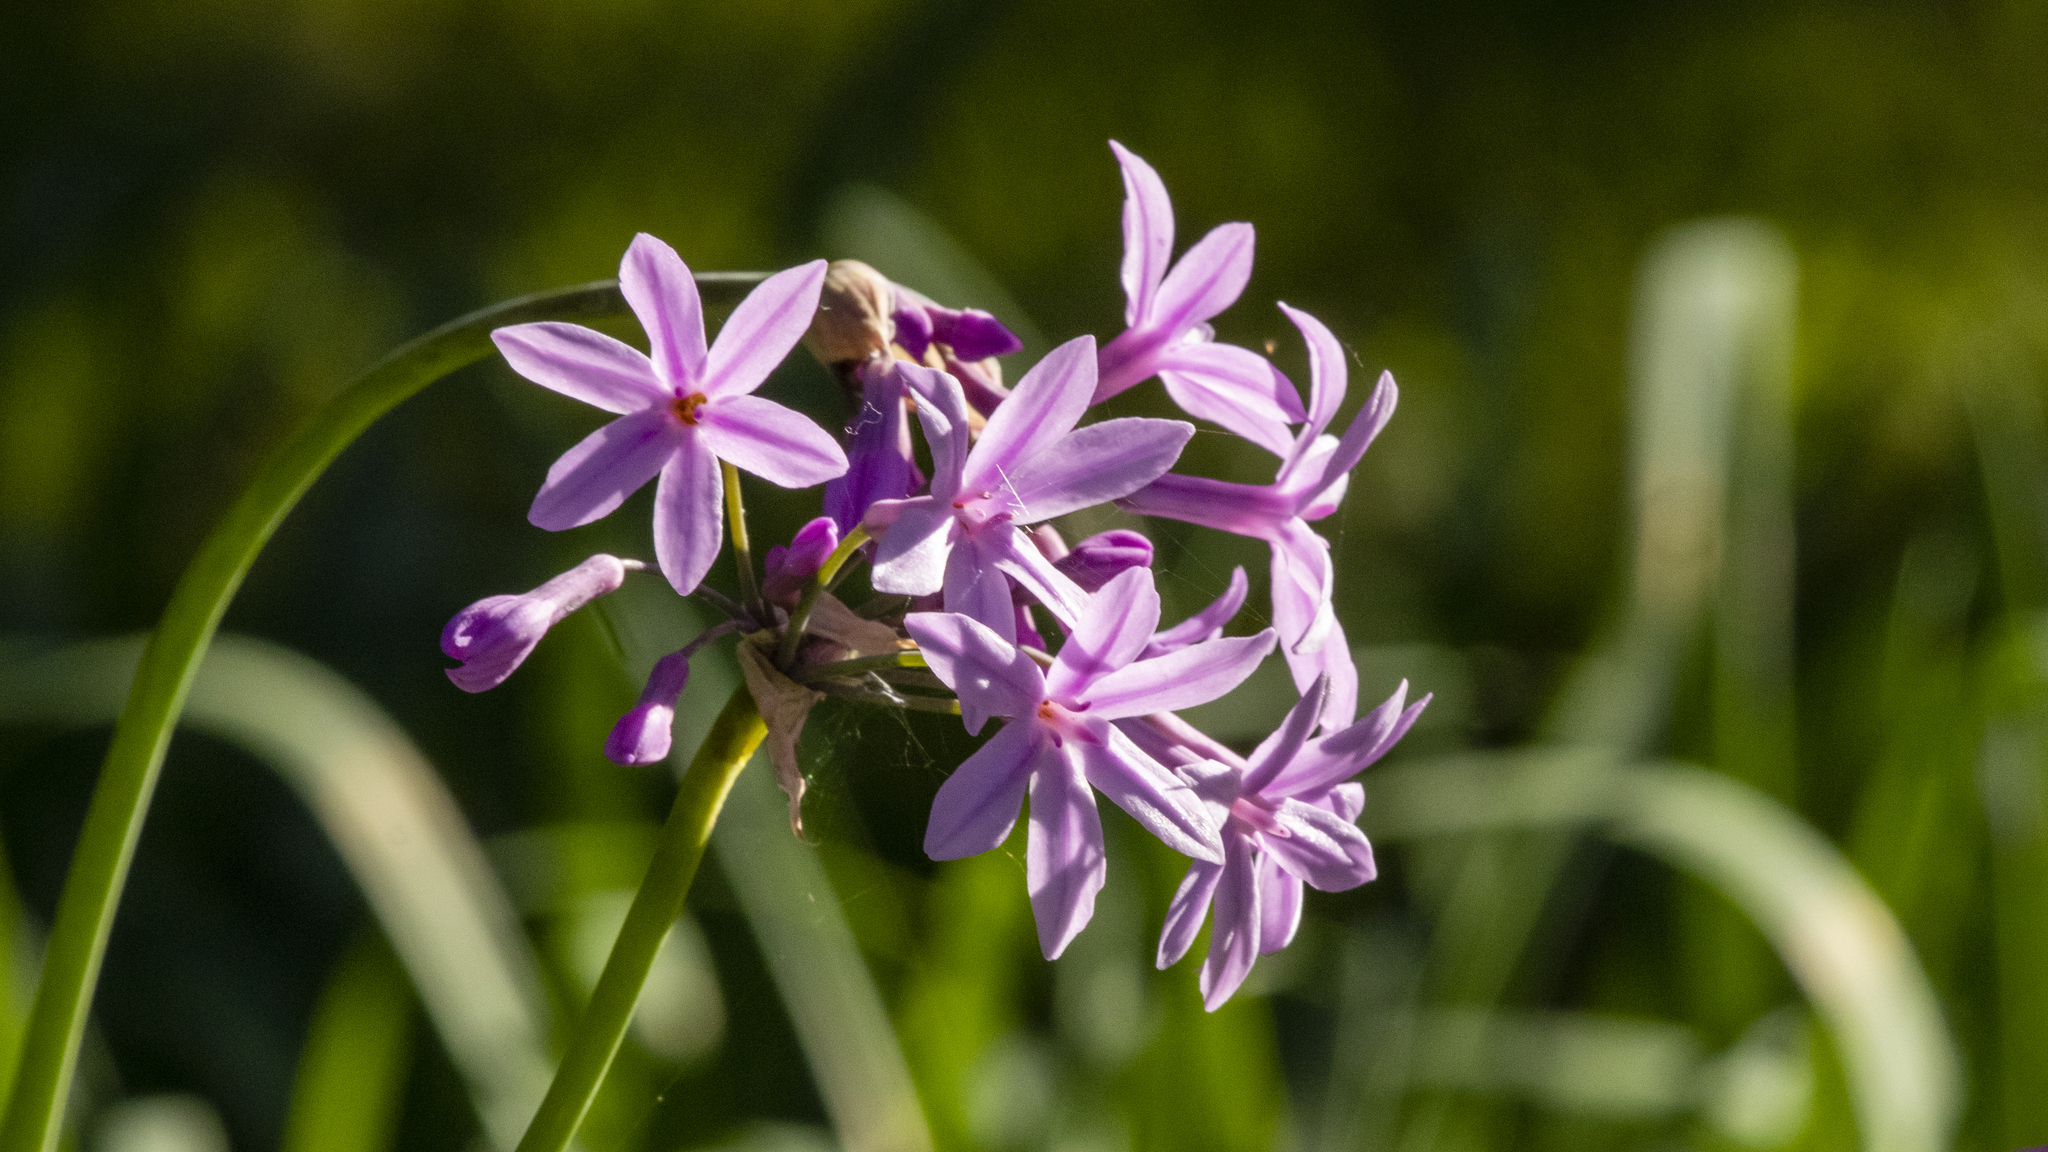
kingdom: Plantae
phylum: Tracheophyta
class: Liliopsida
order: Asparagales
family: Amaryllidaceae
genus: Tulbaghia
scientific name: Tulbaghia violacea
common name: Society garlic
